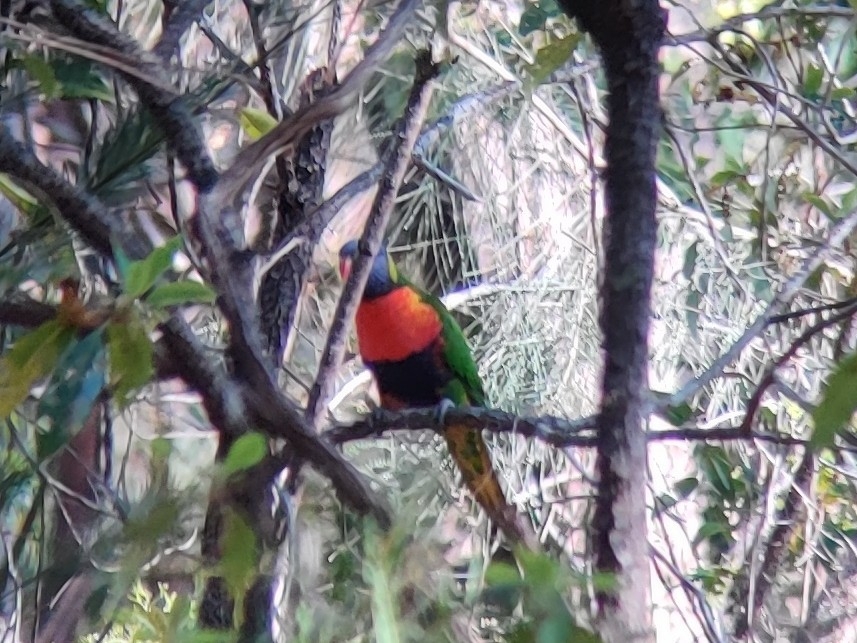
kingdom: Animalia
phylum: Chordata
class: Aves
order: Psittaciformes
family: Psittacidae
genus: Trichoglossus
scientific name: Trichoglossus haematodus
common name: Coconut lorikeet
